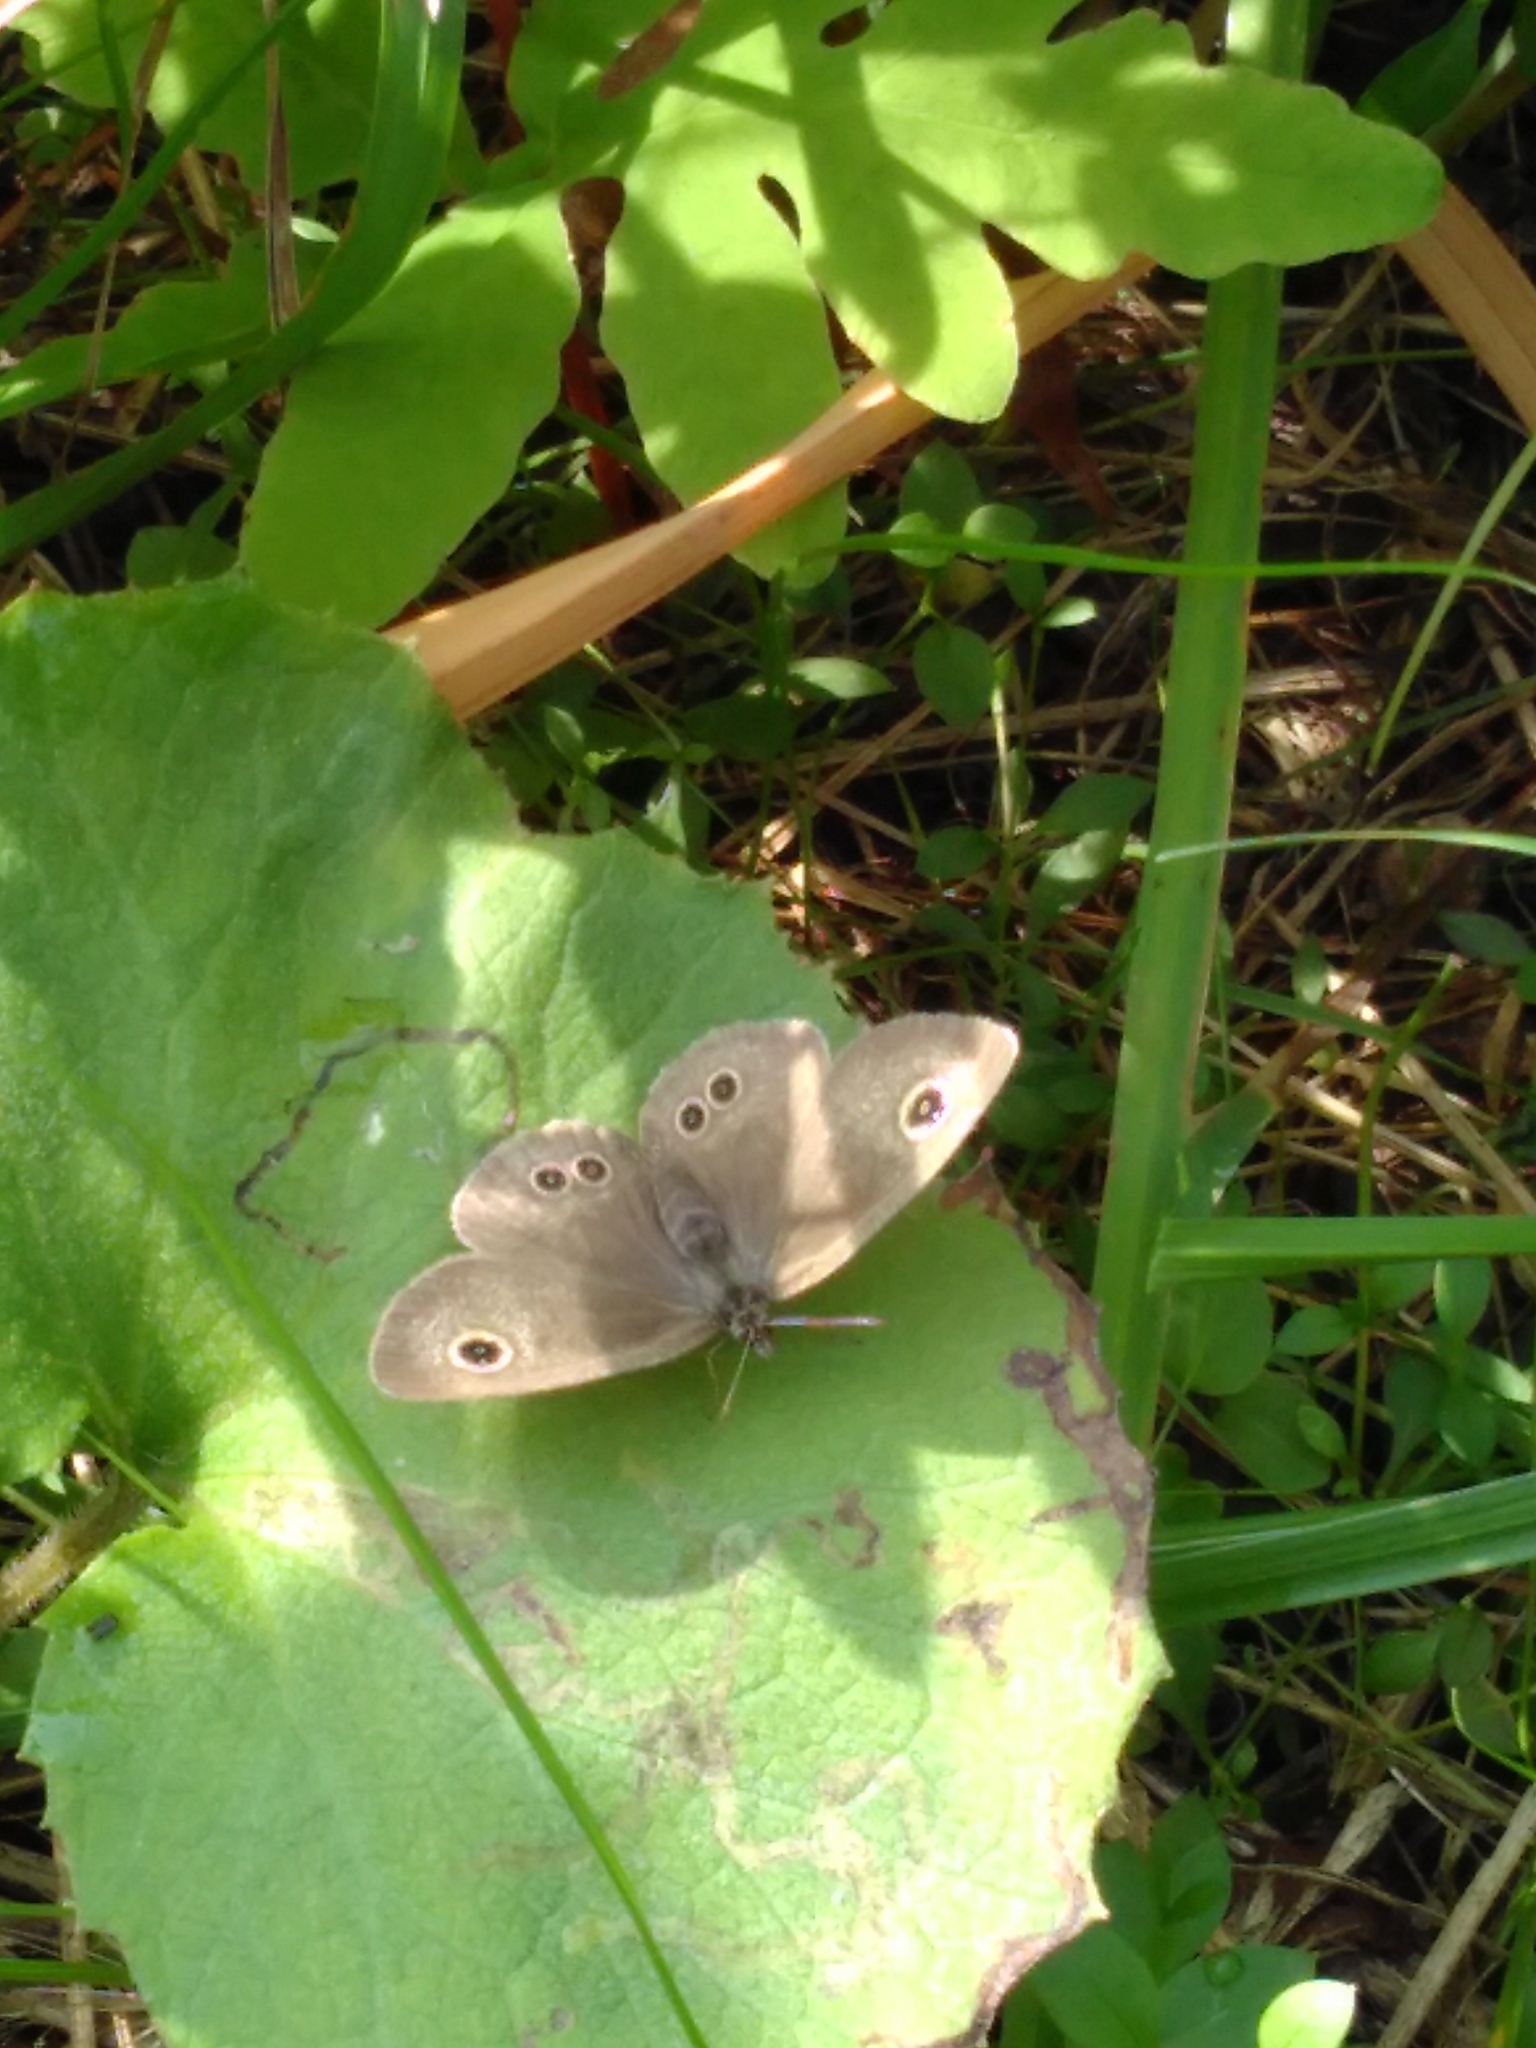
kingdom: Animalia
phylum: Arthropoda
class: Insecta
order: Lepidoptera
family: Nymphalidae
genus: Ypthima
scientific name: Ypthima argus
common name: Common fivering
